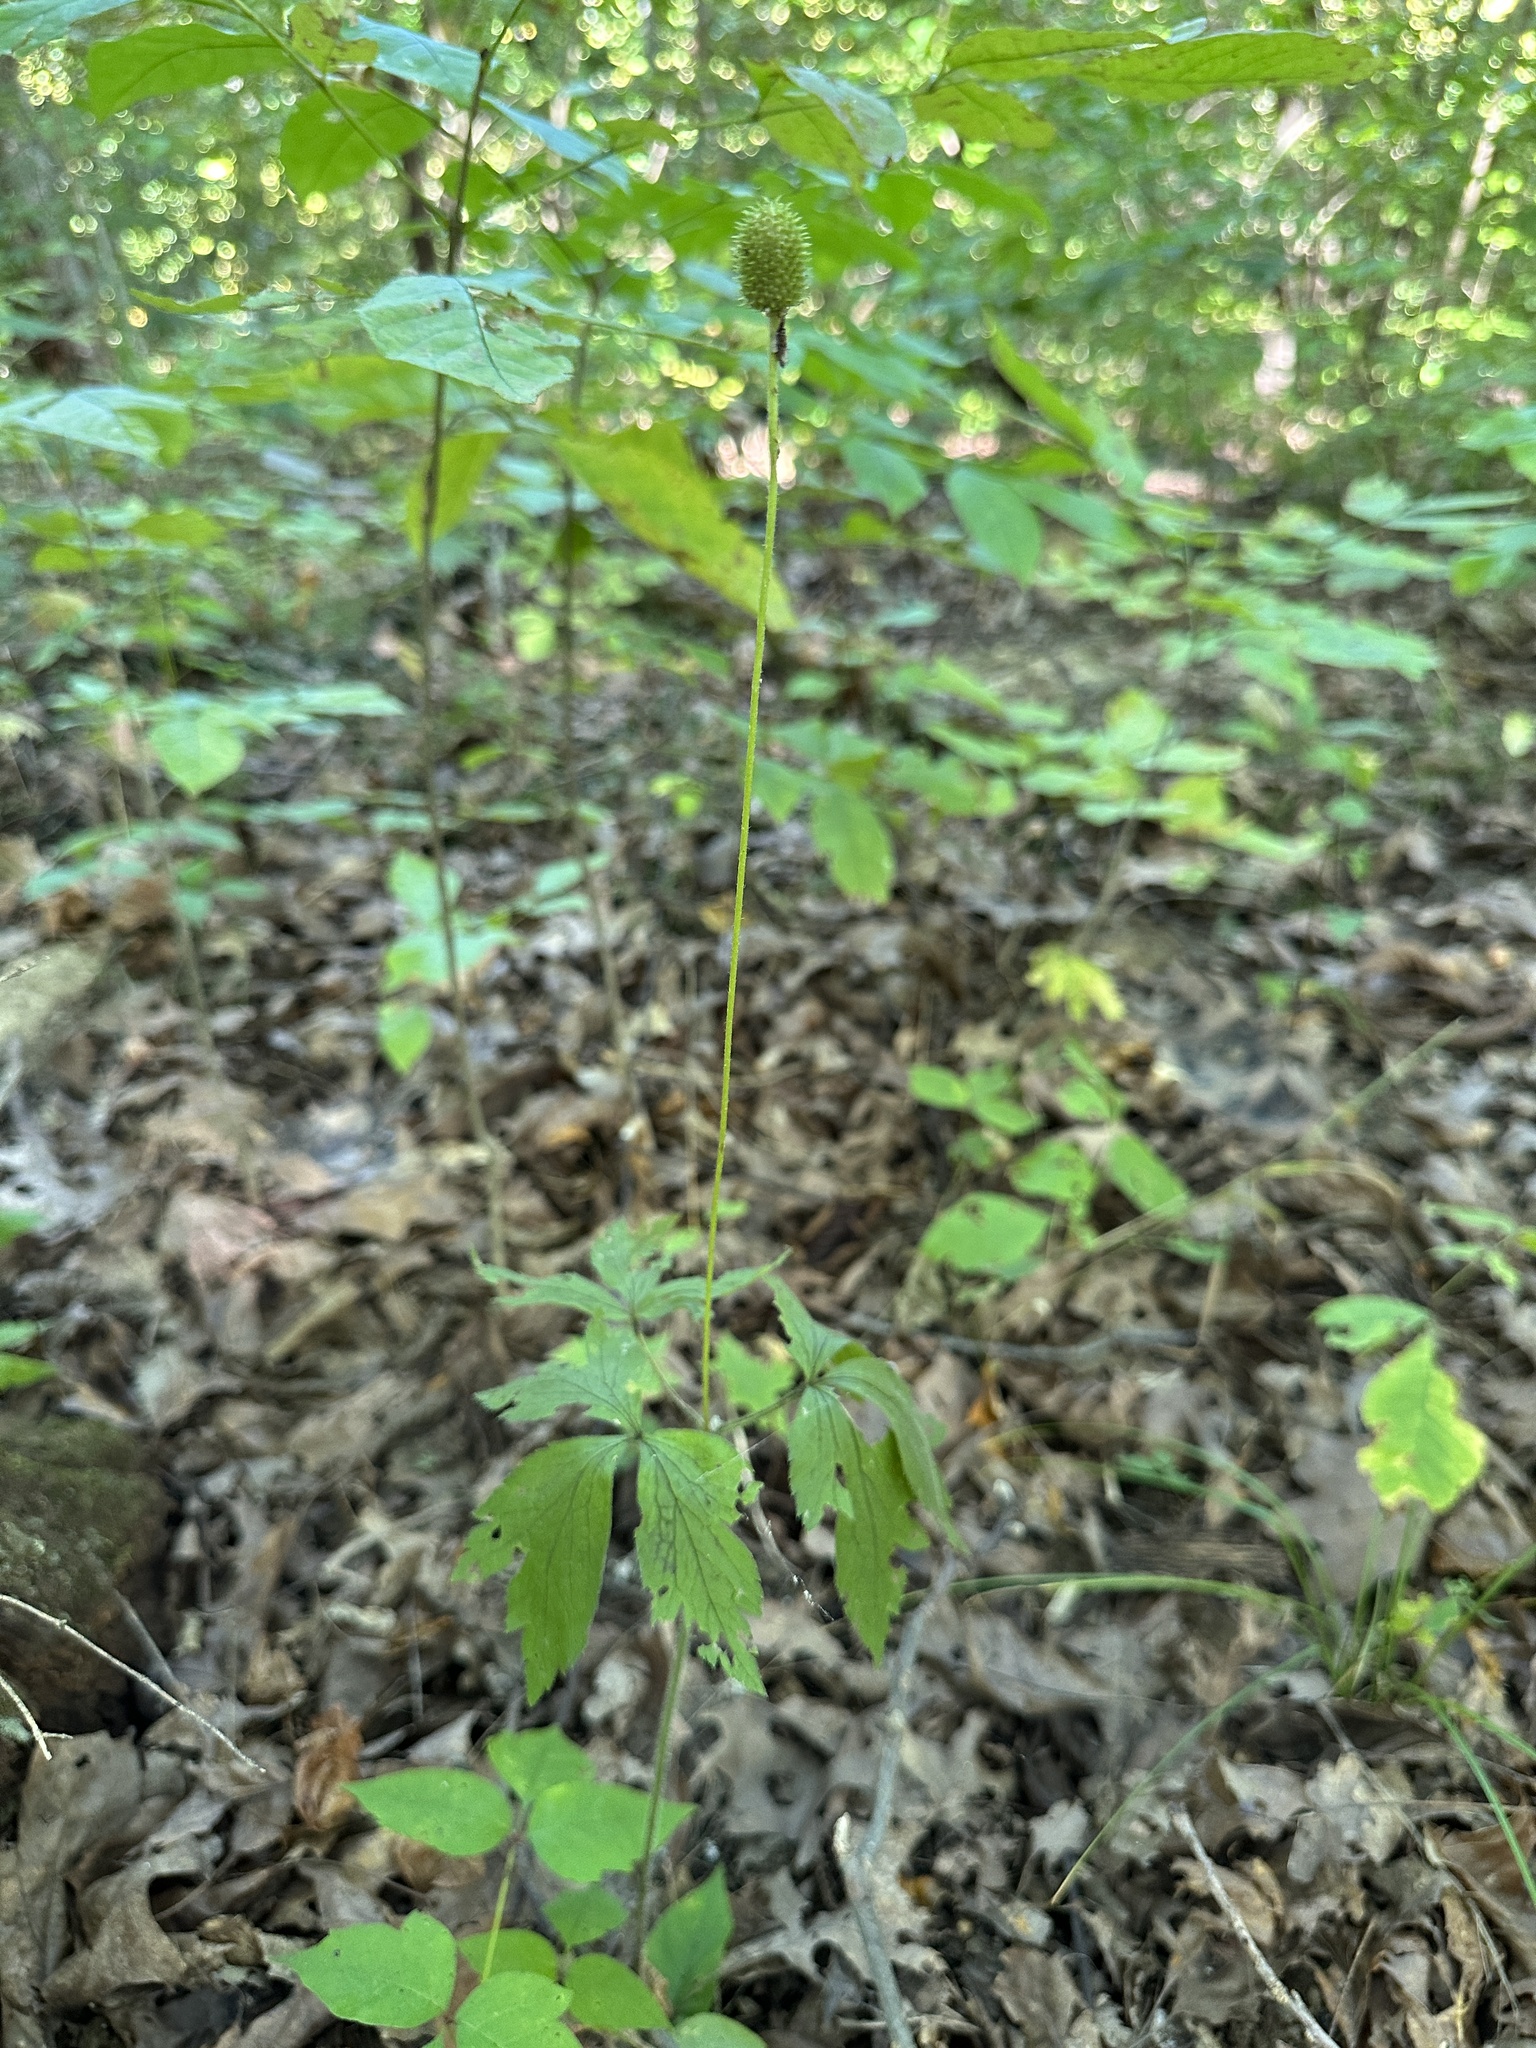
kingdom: Plantae
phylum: Tracheophyta
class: Magnoliopsida
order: Ranunculales
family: Ranunculaceae
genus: Anemone
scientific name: Anemone virginiana
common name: Tall anemone
